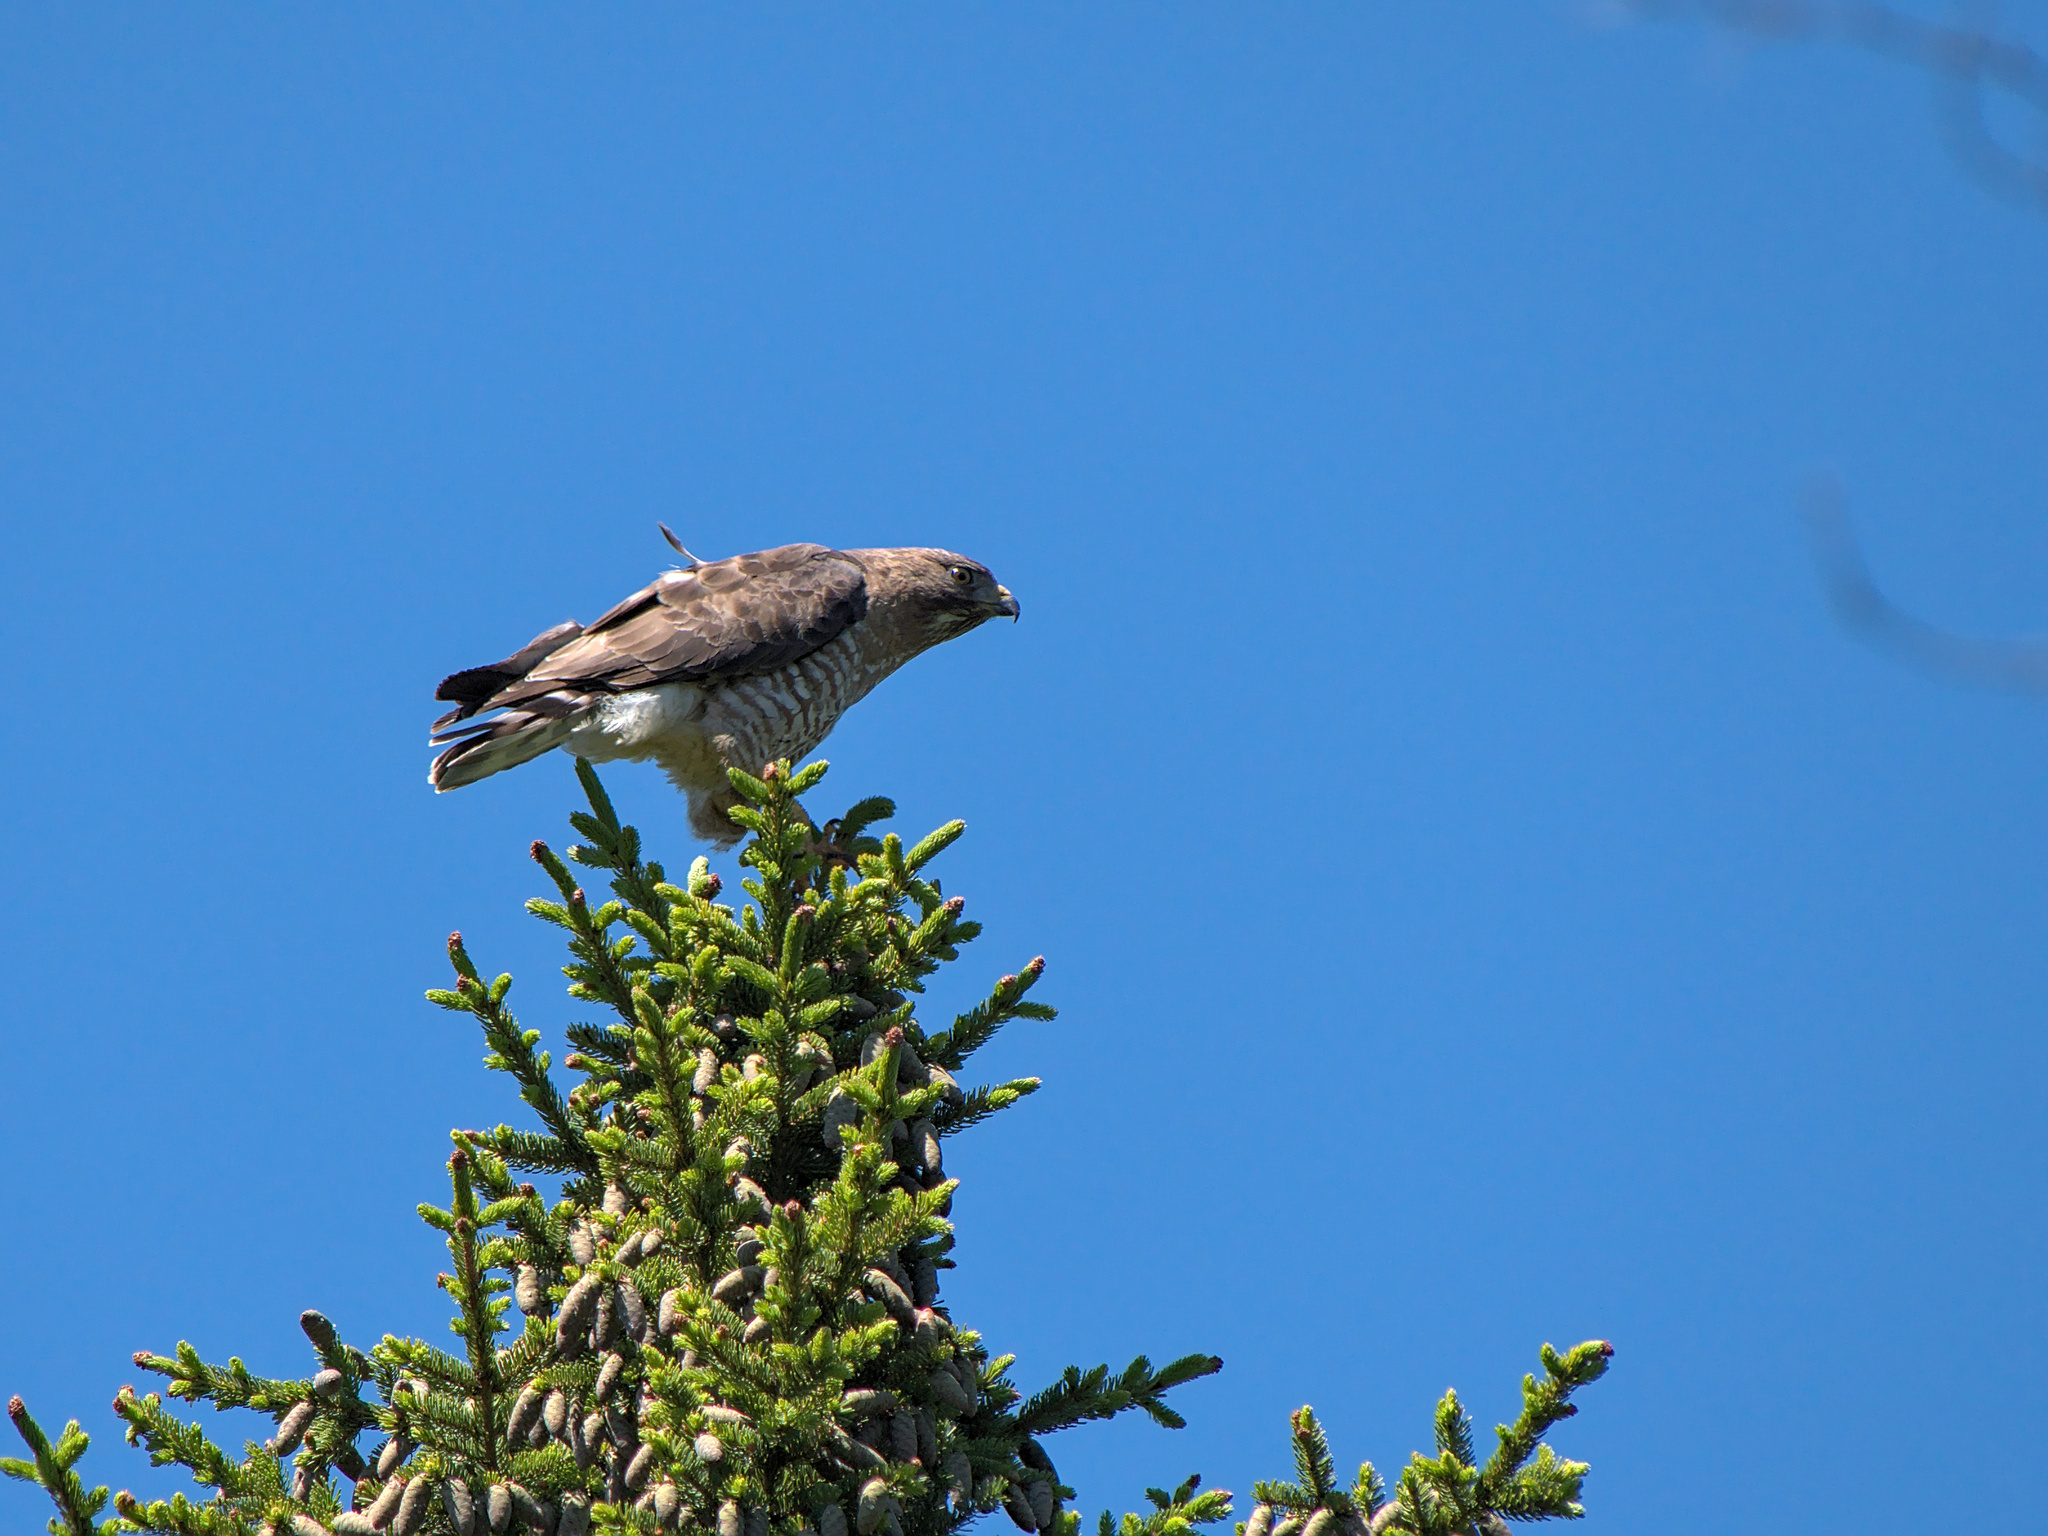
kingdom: Animalia
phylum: Chordata
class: Aves
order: Accipitriformes
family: Accipitridae
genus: Buteo
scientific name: Buteo platypterus
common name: Broad-winged hawk
